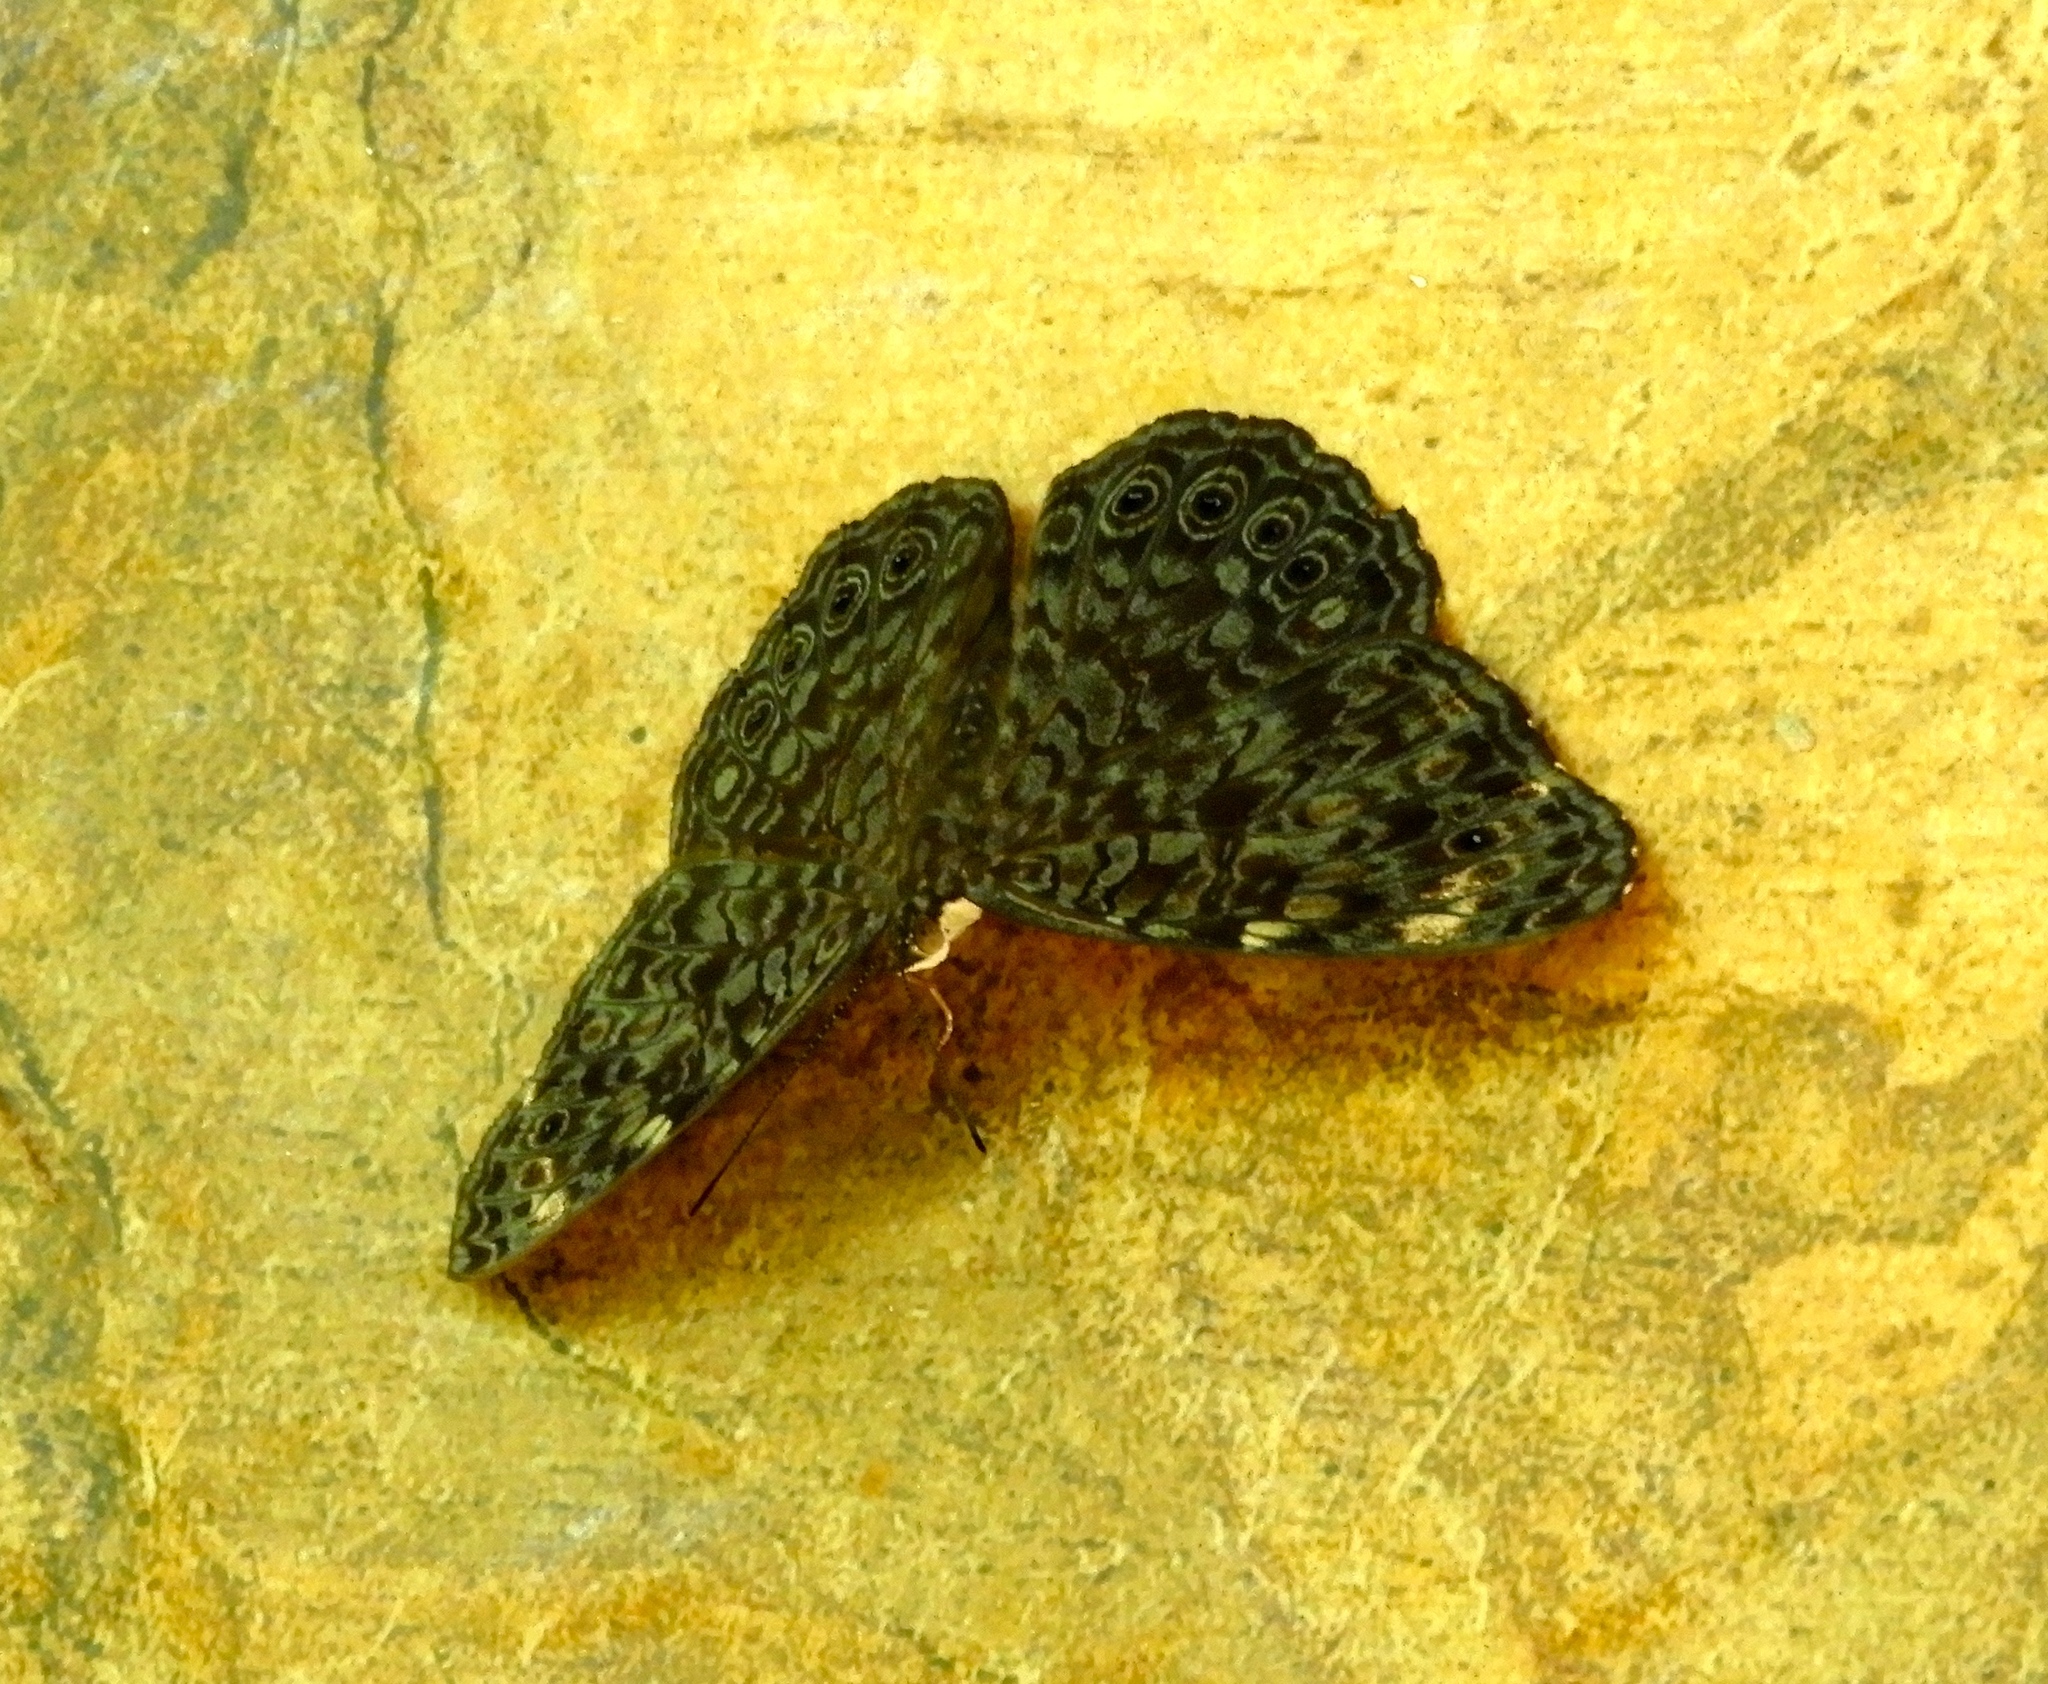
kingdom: Animalia
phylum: Arthropoda
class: Insecta
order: Lepidoptera
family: Nymphalidae
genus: Hamadryas
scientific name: Hamadryas lelaps
